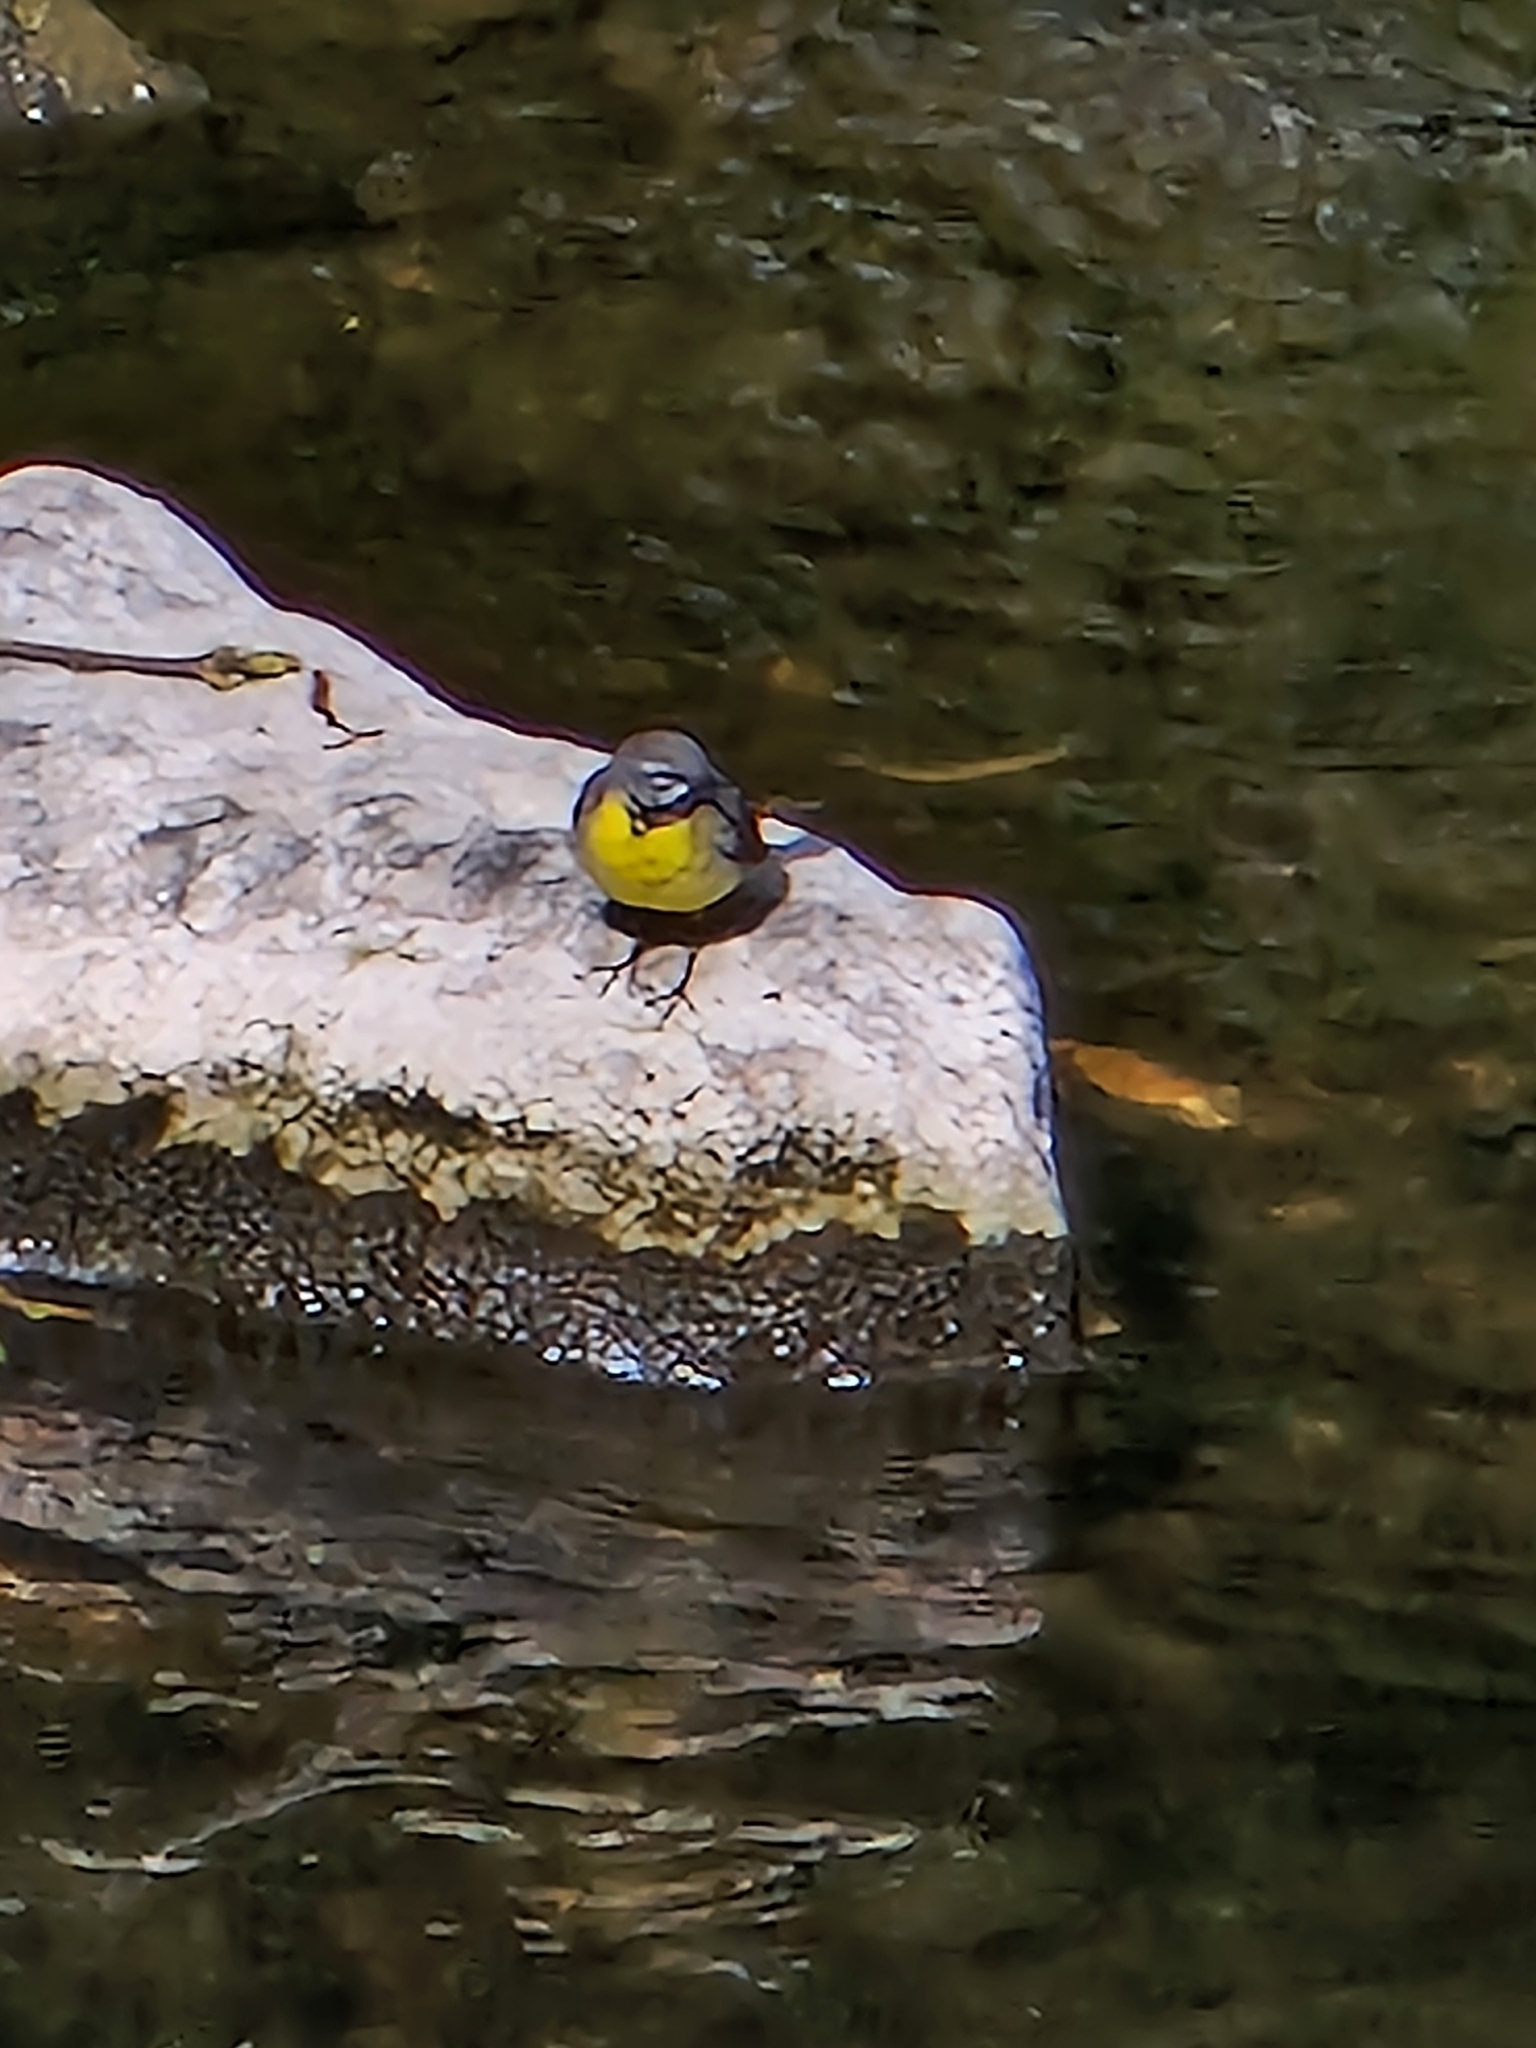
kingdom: Animalia
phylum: Chordata
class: Aves
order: Passeriformes
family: Motacillidae
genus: Motacilla
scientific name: Motacilla cinerea
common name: Grey wagtail
